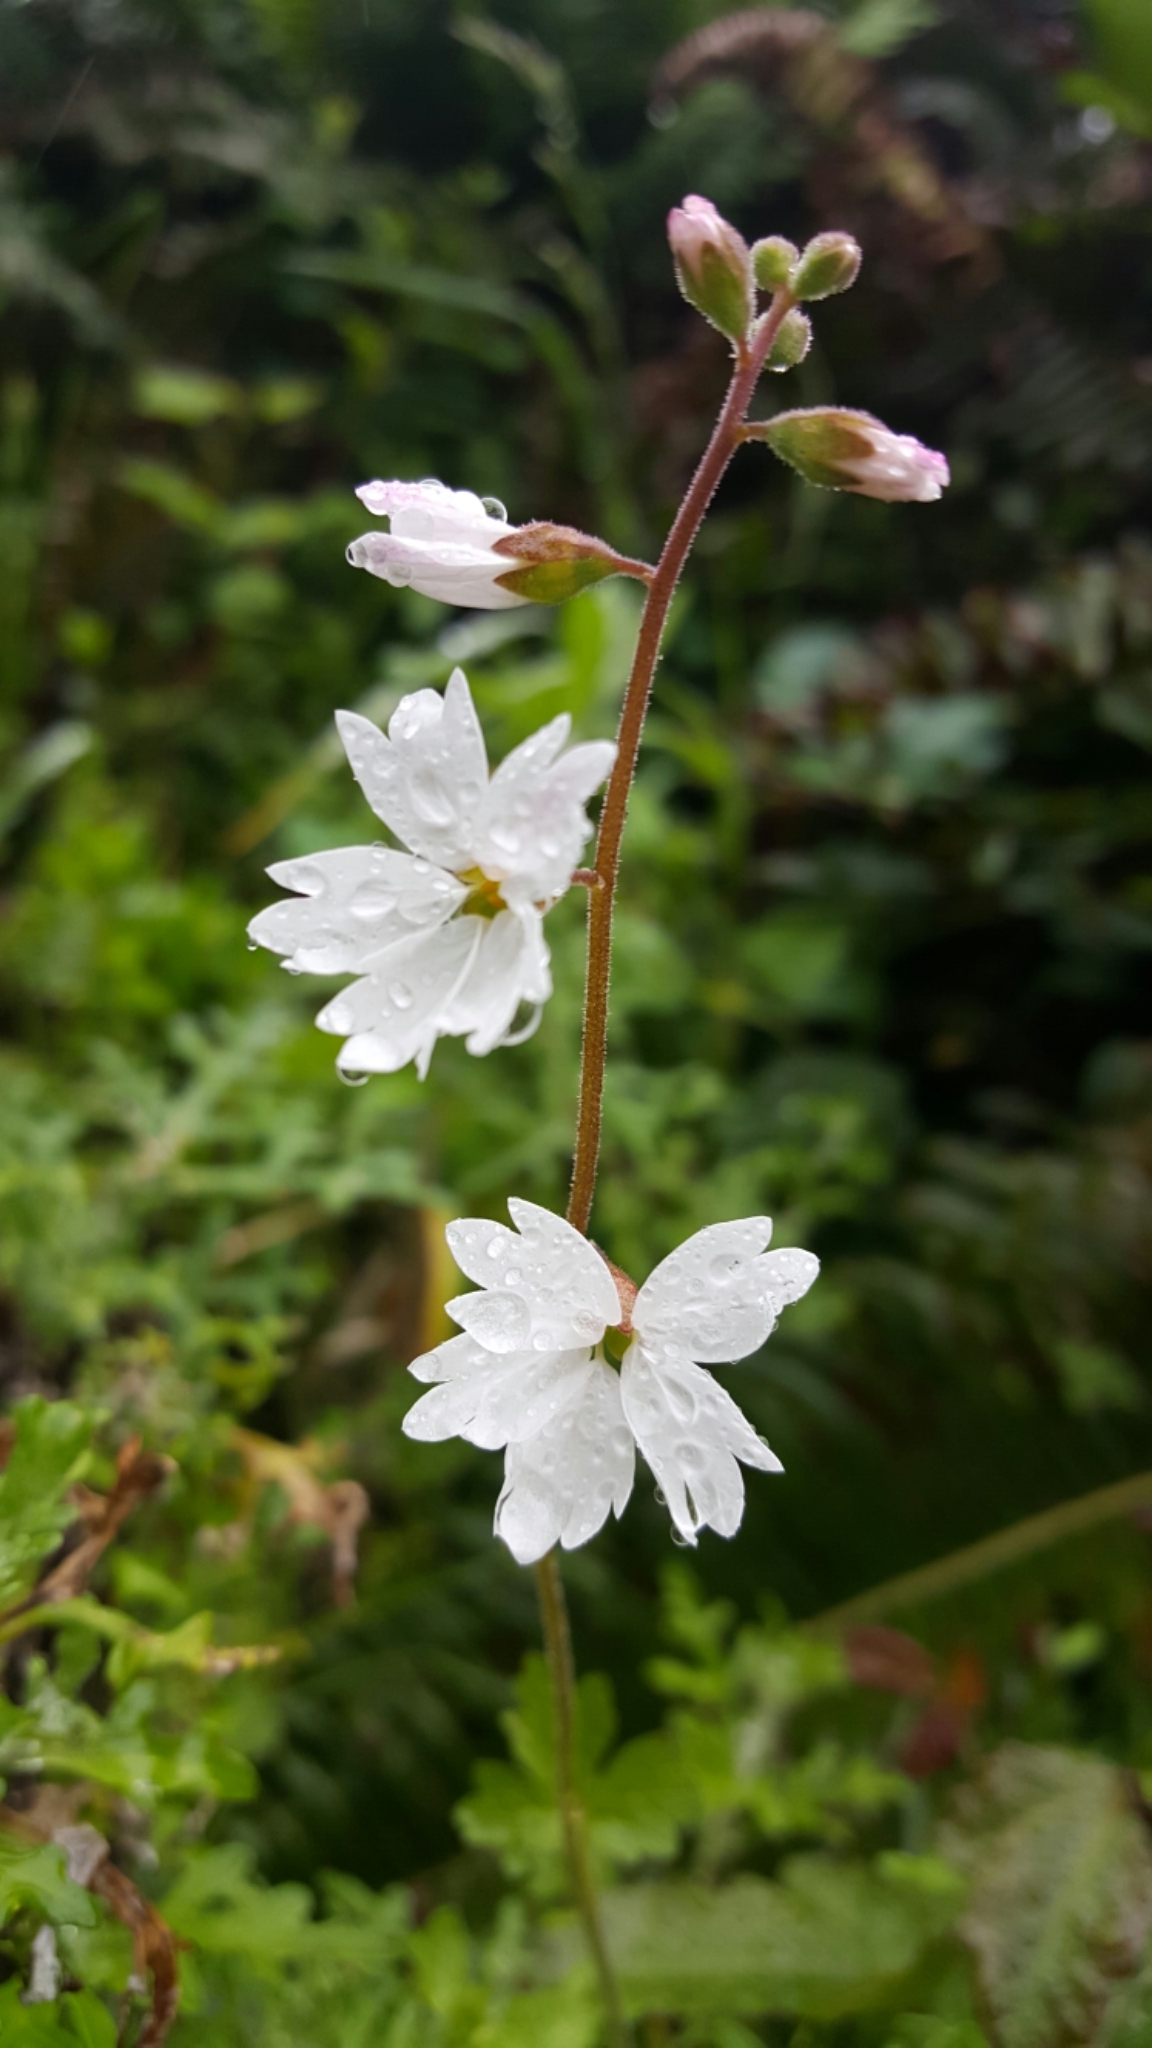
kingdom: Plantae
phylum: Tracheophyta
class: Magnoliopsida
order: Saxifragales
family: Saxifragaceae
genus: Lithophragma
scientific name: Lithophragma affine
